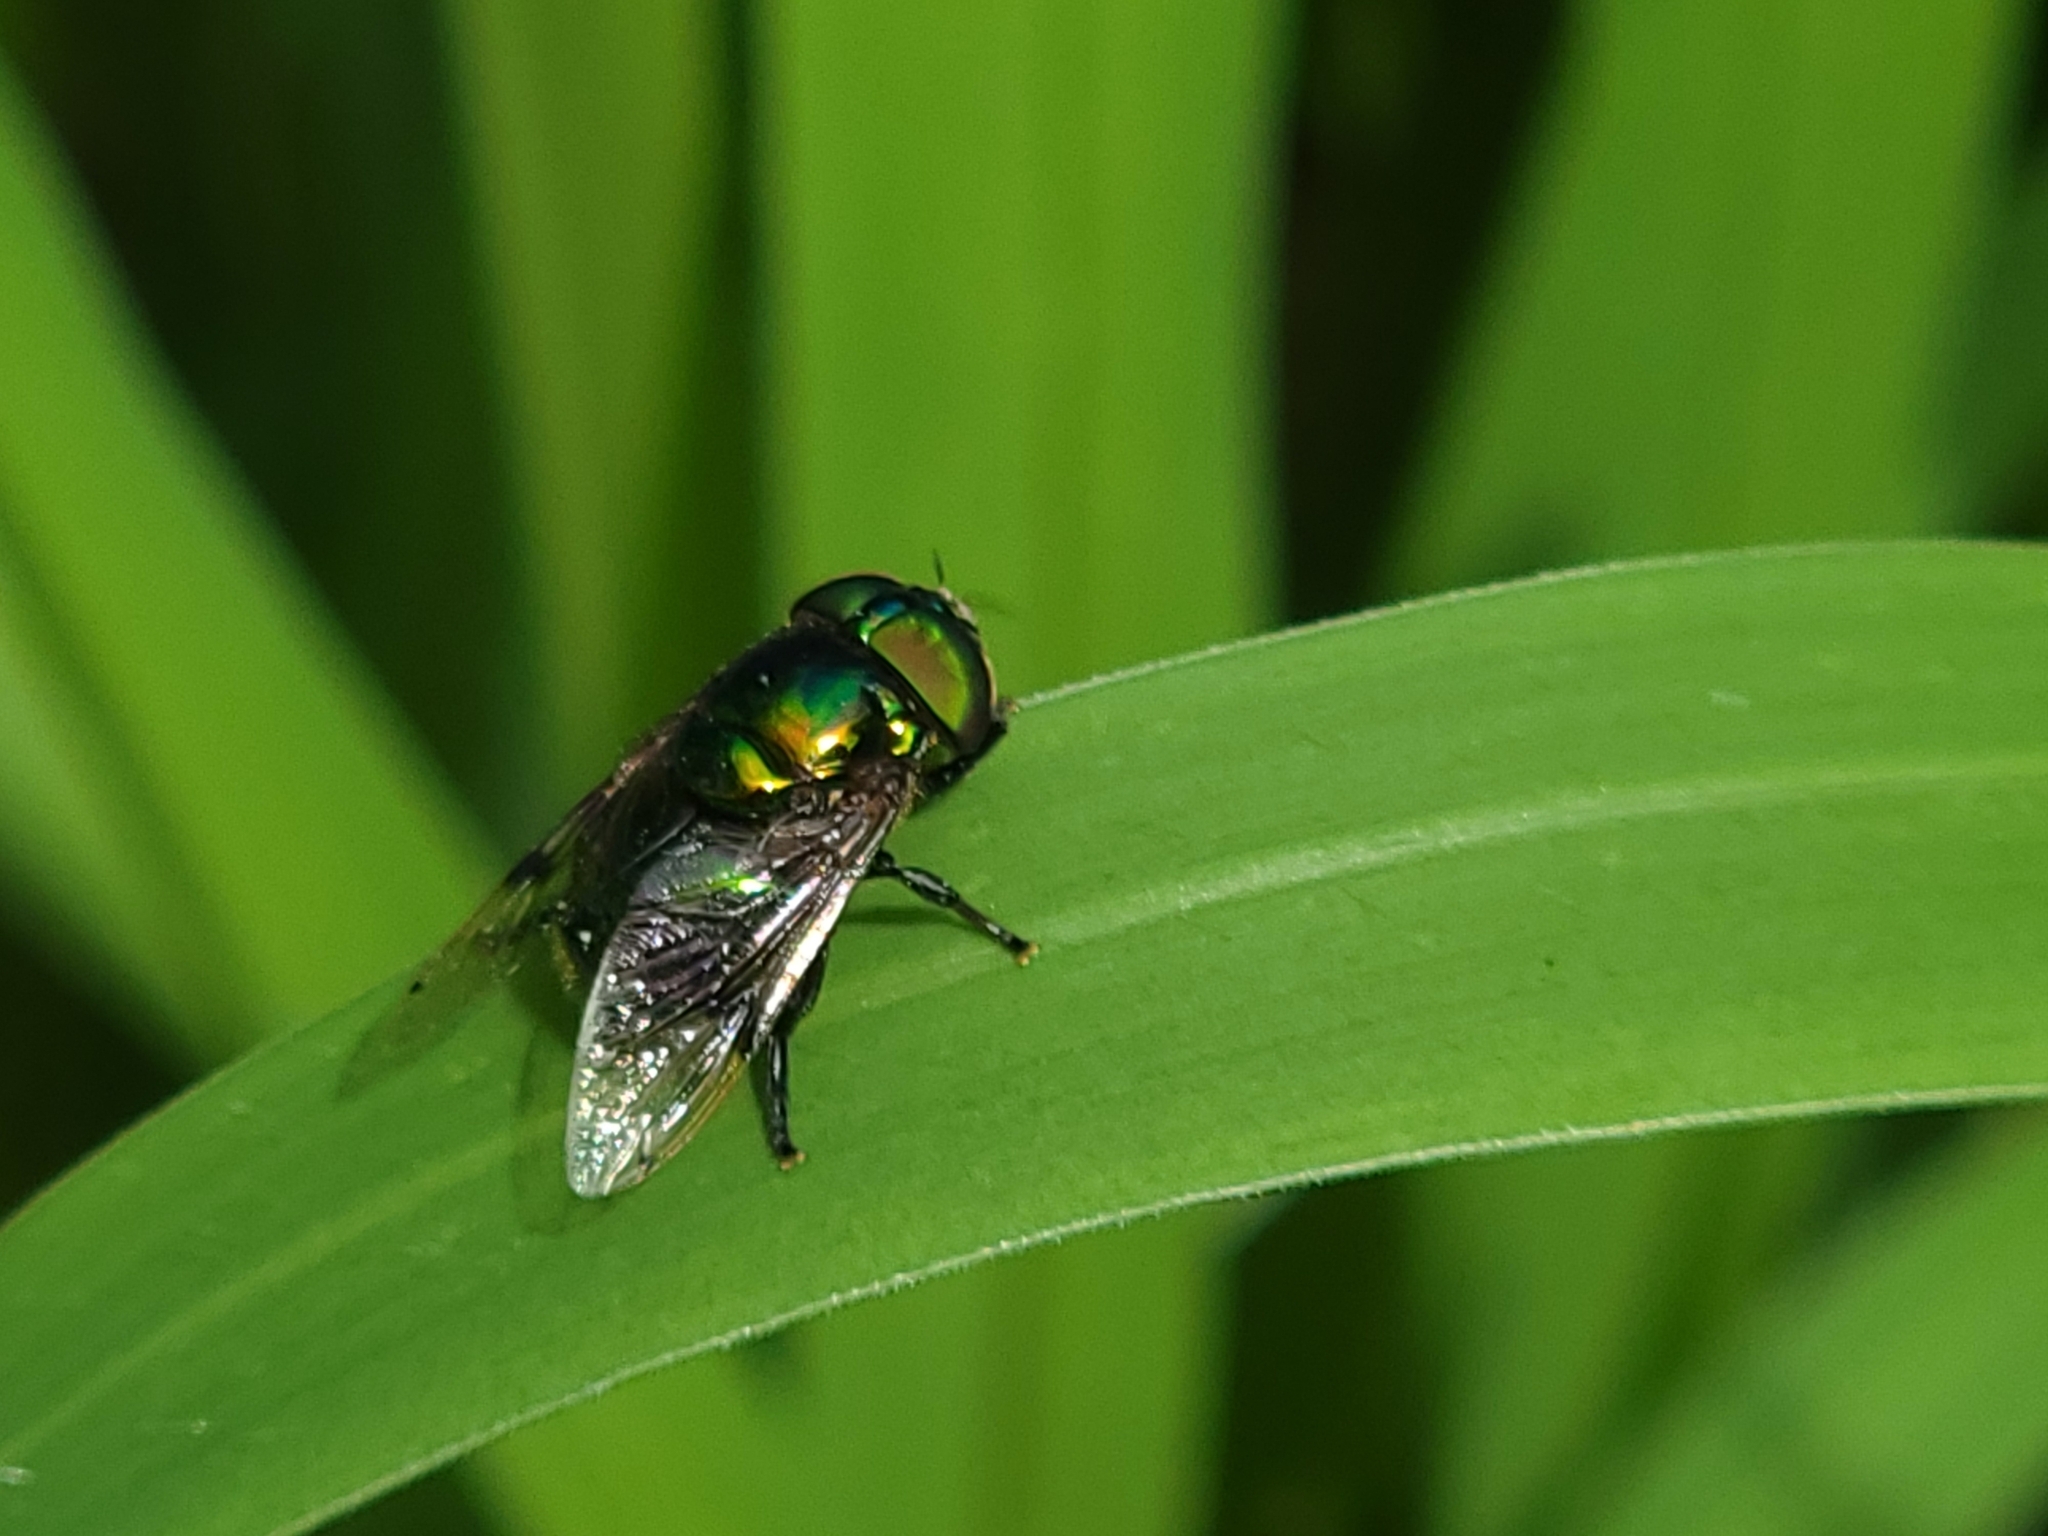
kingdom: Animalia
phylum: Arthropoda
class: Insecta
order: Diptera
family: Syrphidae
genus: Ornidia
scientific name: Ornidia obesa
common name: Syrphid fly
